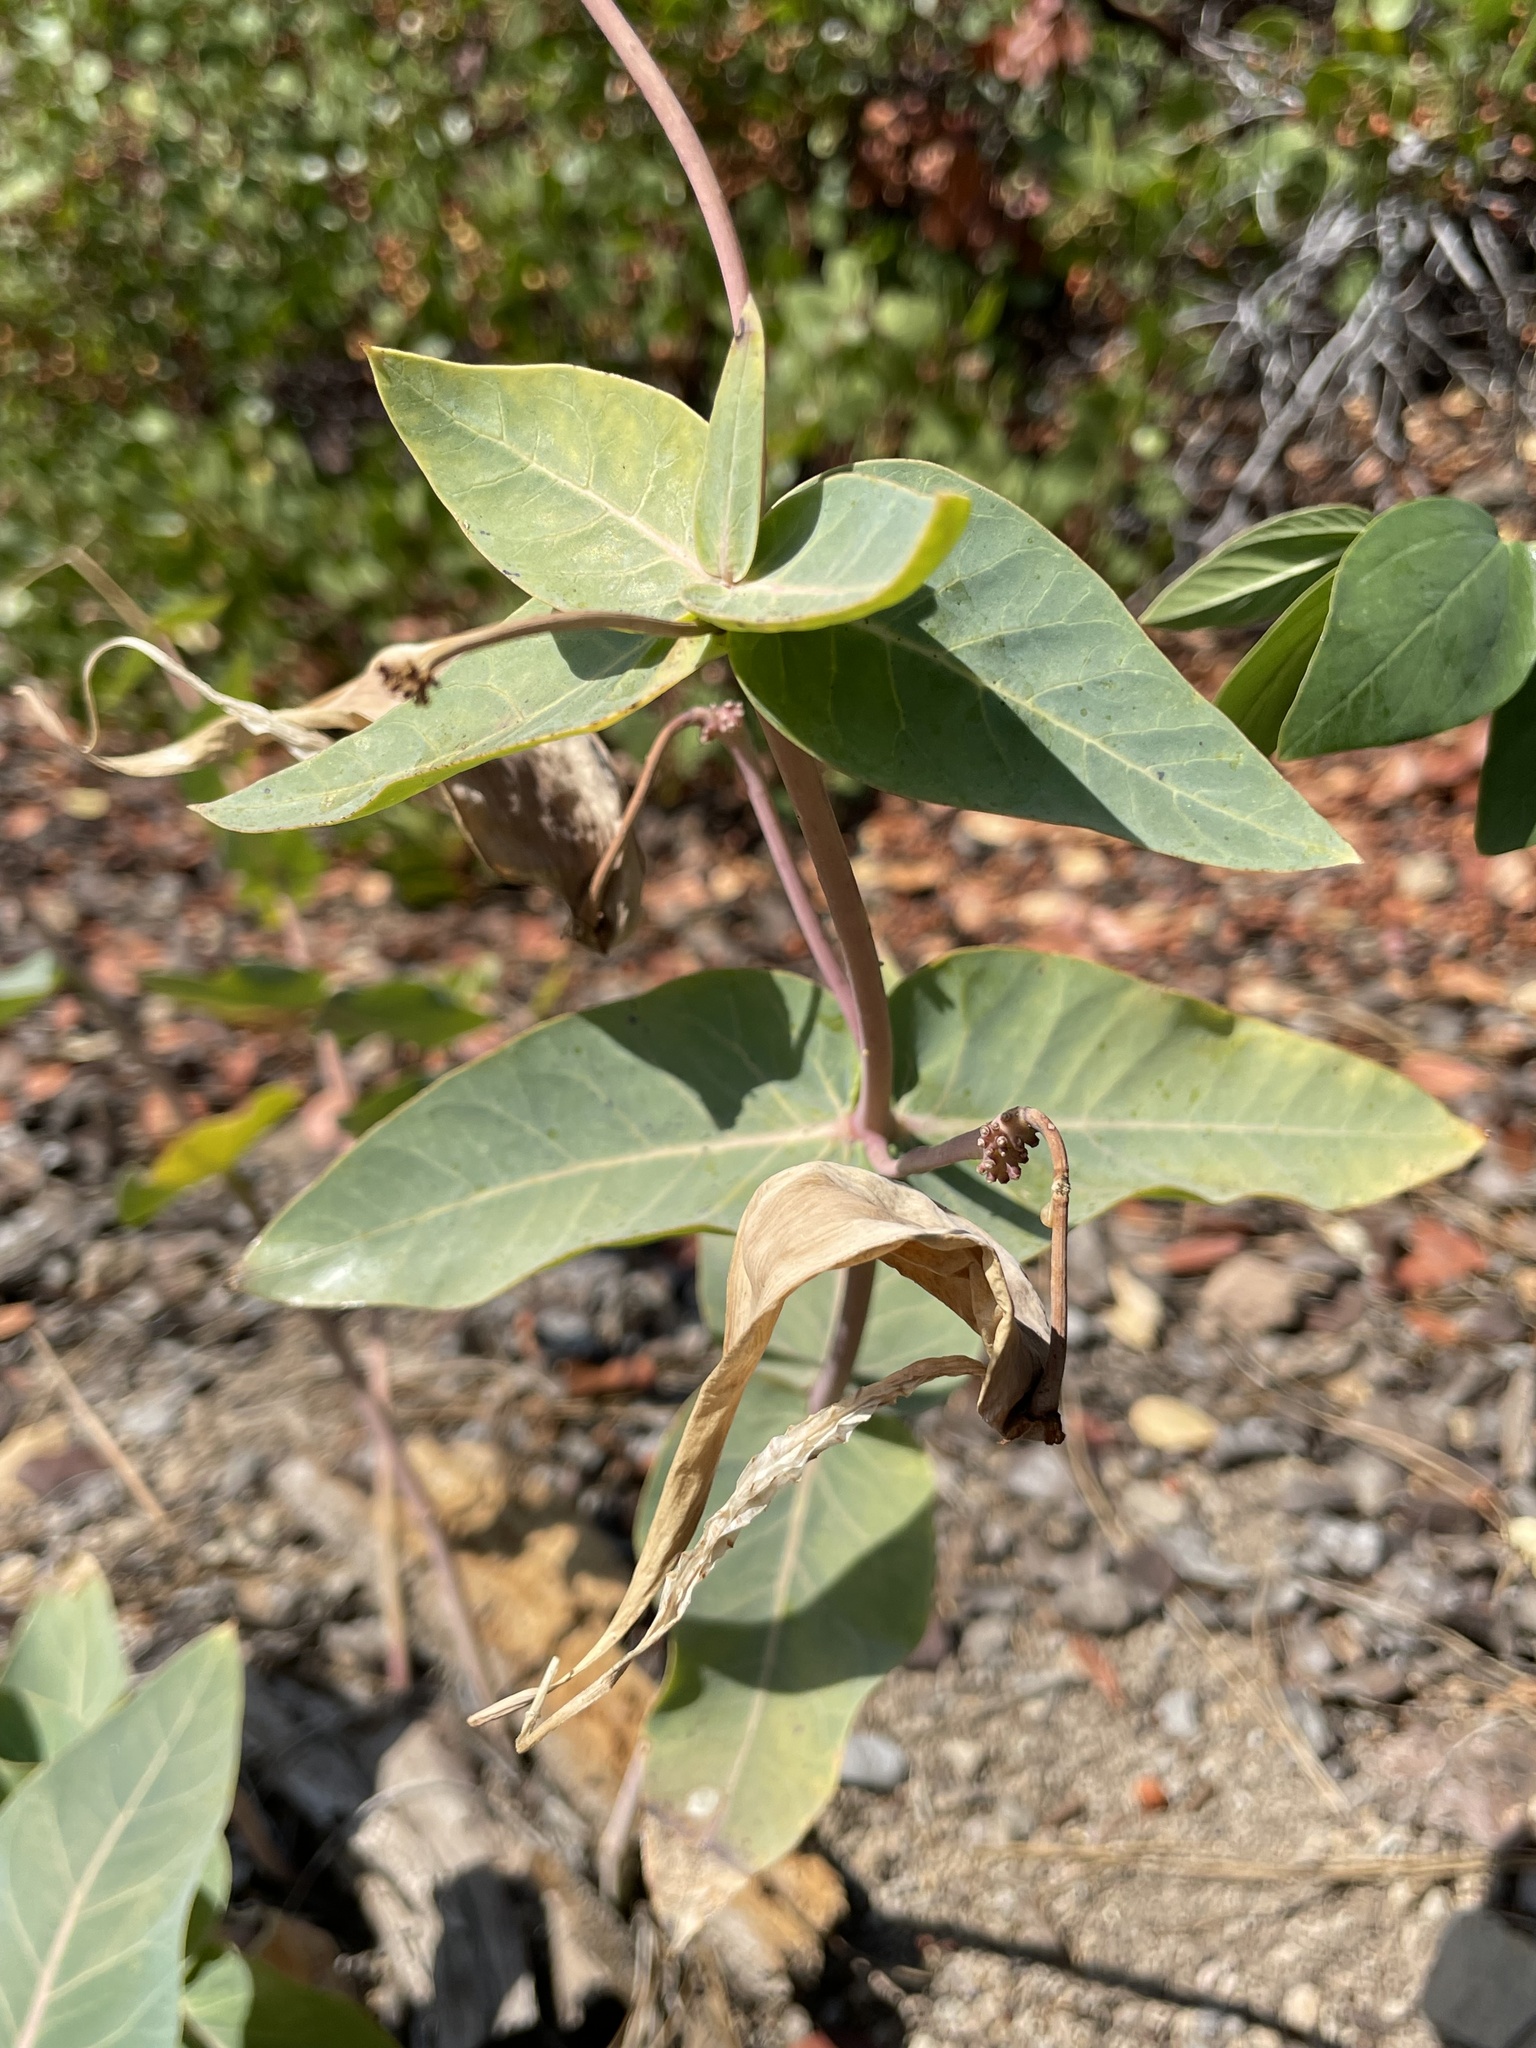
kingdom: Plantae
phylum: Tracheophyta
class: Magnoliopsida
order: Gentianales
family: Apocynaceae
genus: Asclepias
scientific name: Asclepias cordifolia
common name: Purple milkweed
